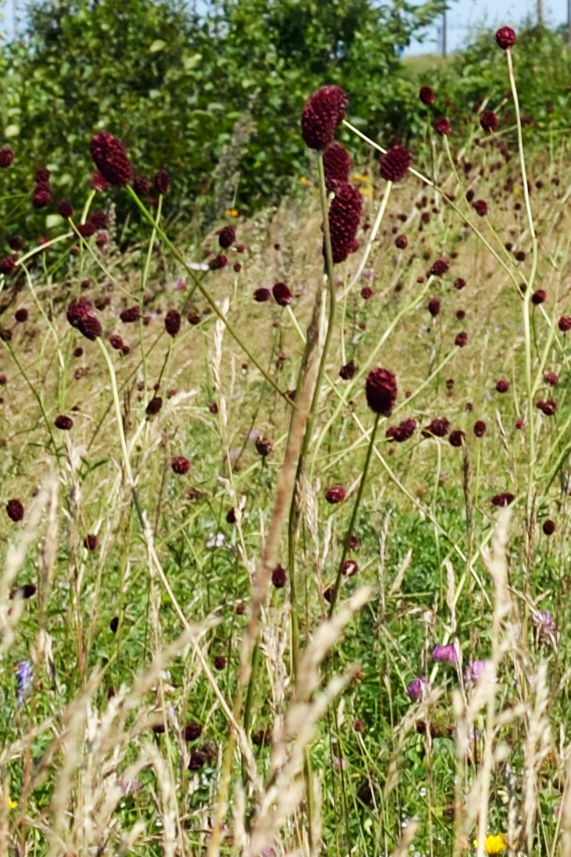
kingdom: Plantae
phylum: Tracheophyta
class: Magnoliopsida
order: Rosales
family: Rosaceae
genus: Sanguisorba
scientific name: Sanguisorba officinalis
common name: Great burnet
